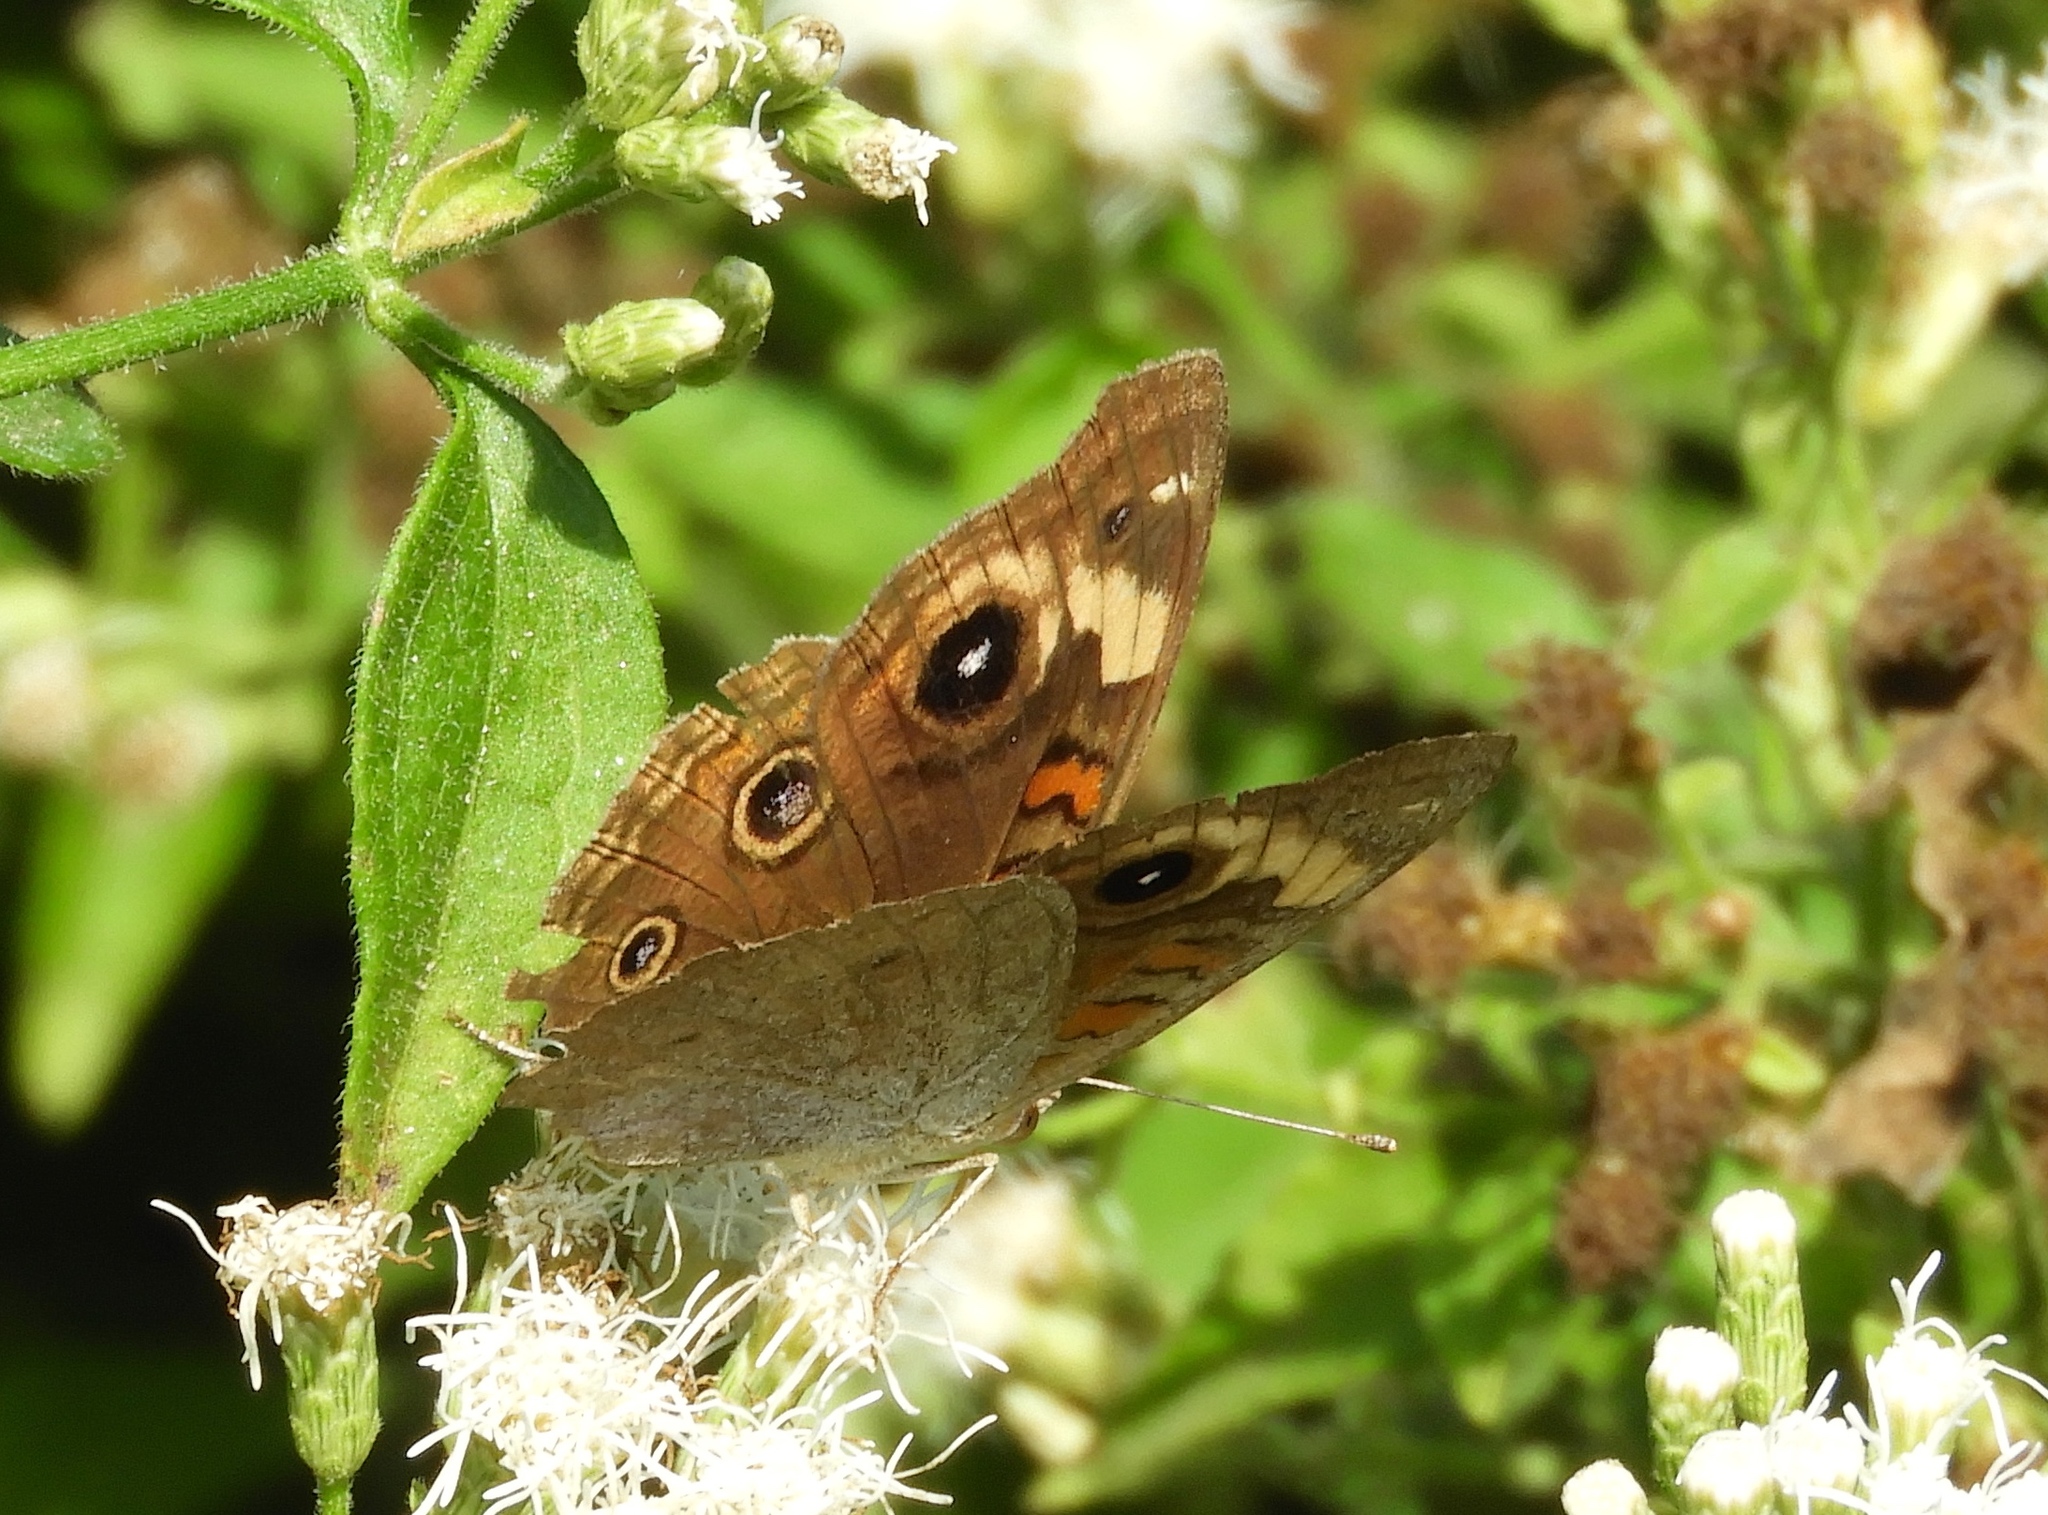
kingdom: Animalia
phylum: Arthropoda
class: Insecta
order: Lepidoptera
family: Nymphalidae
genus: Junonia
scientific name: Junonia
